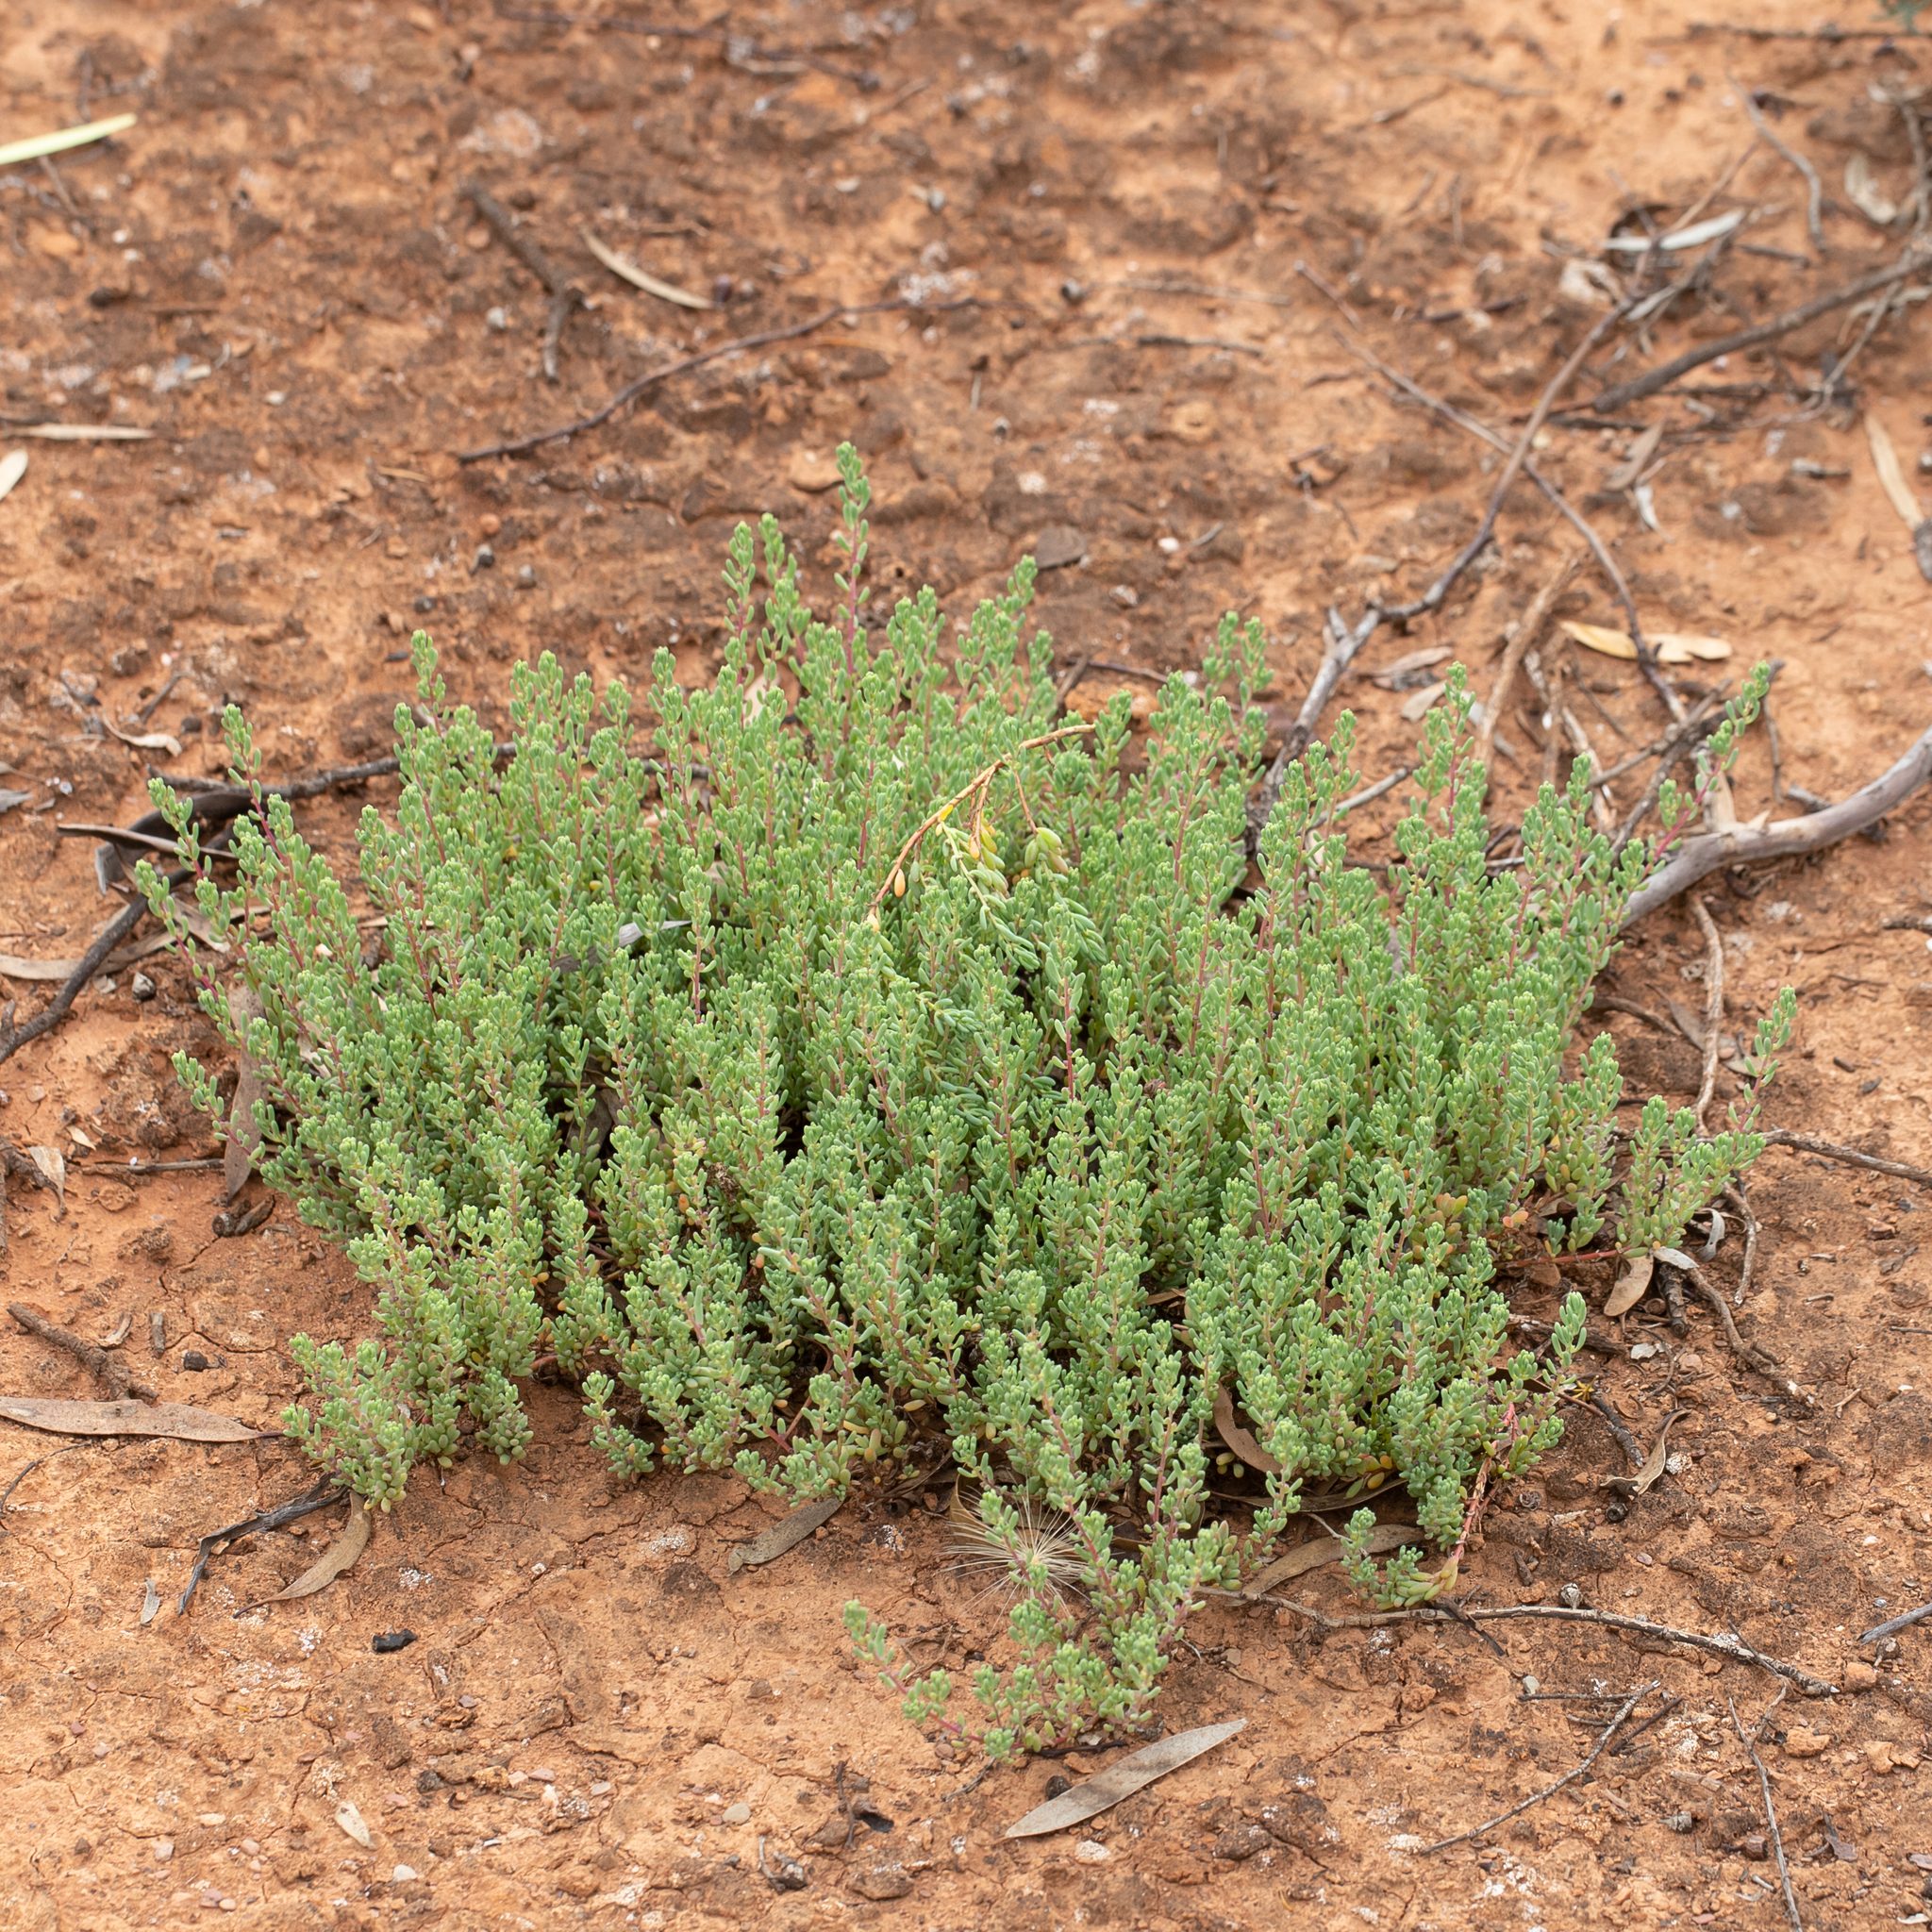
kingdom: Plantae
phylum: Tracheophyta
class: Magnoliopsida
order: Caryophyllales
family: Amaranthaceae
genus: Threlkeldia
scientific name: Threlkeldia diffusa
